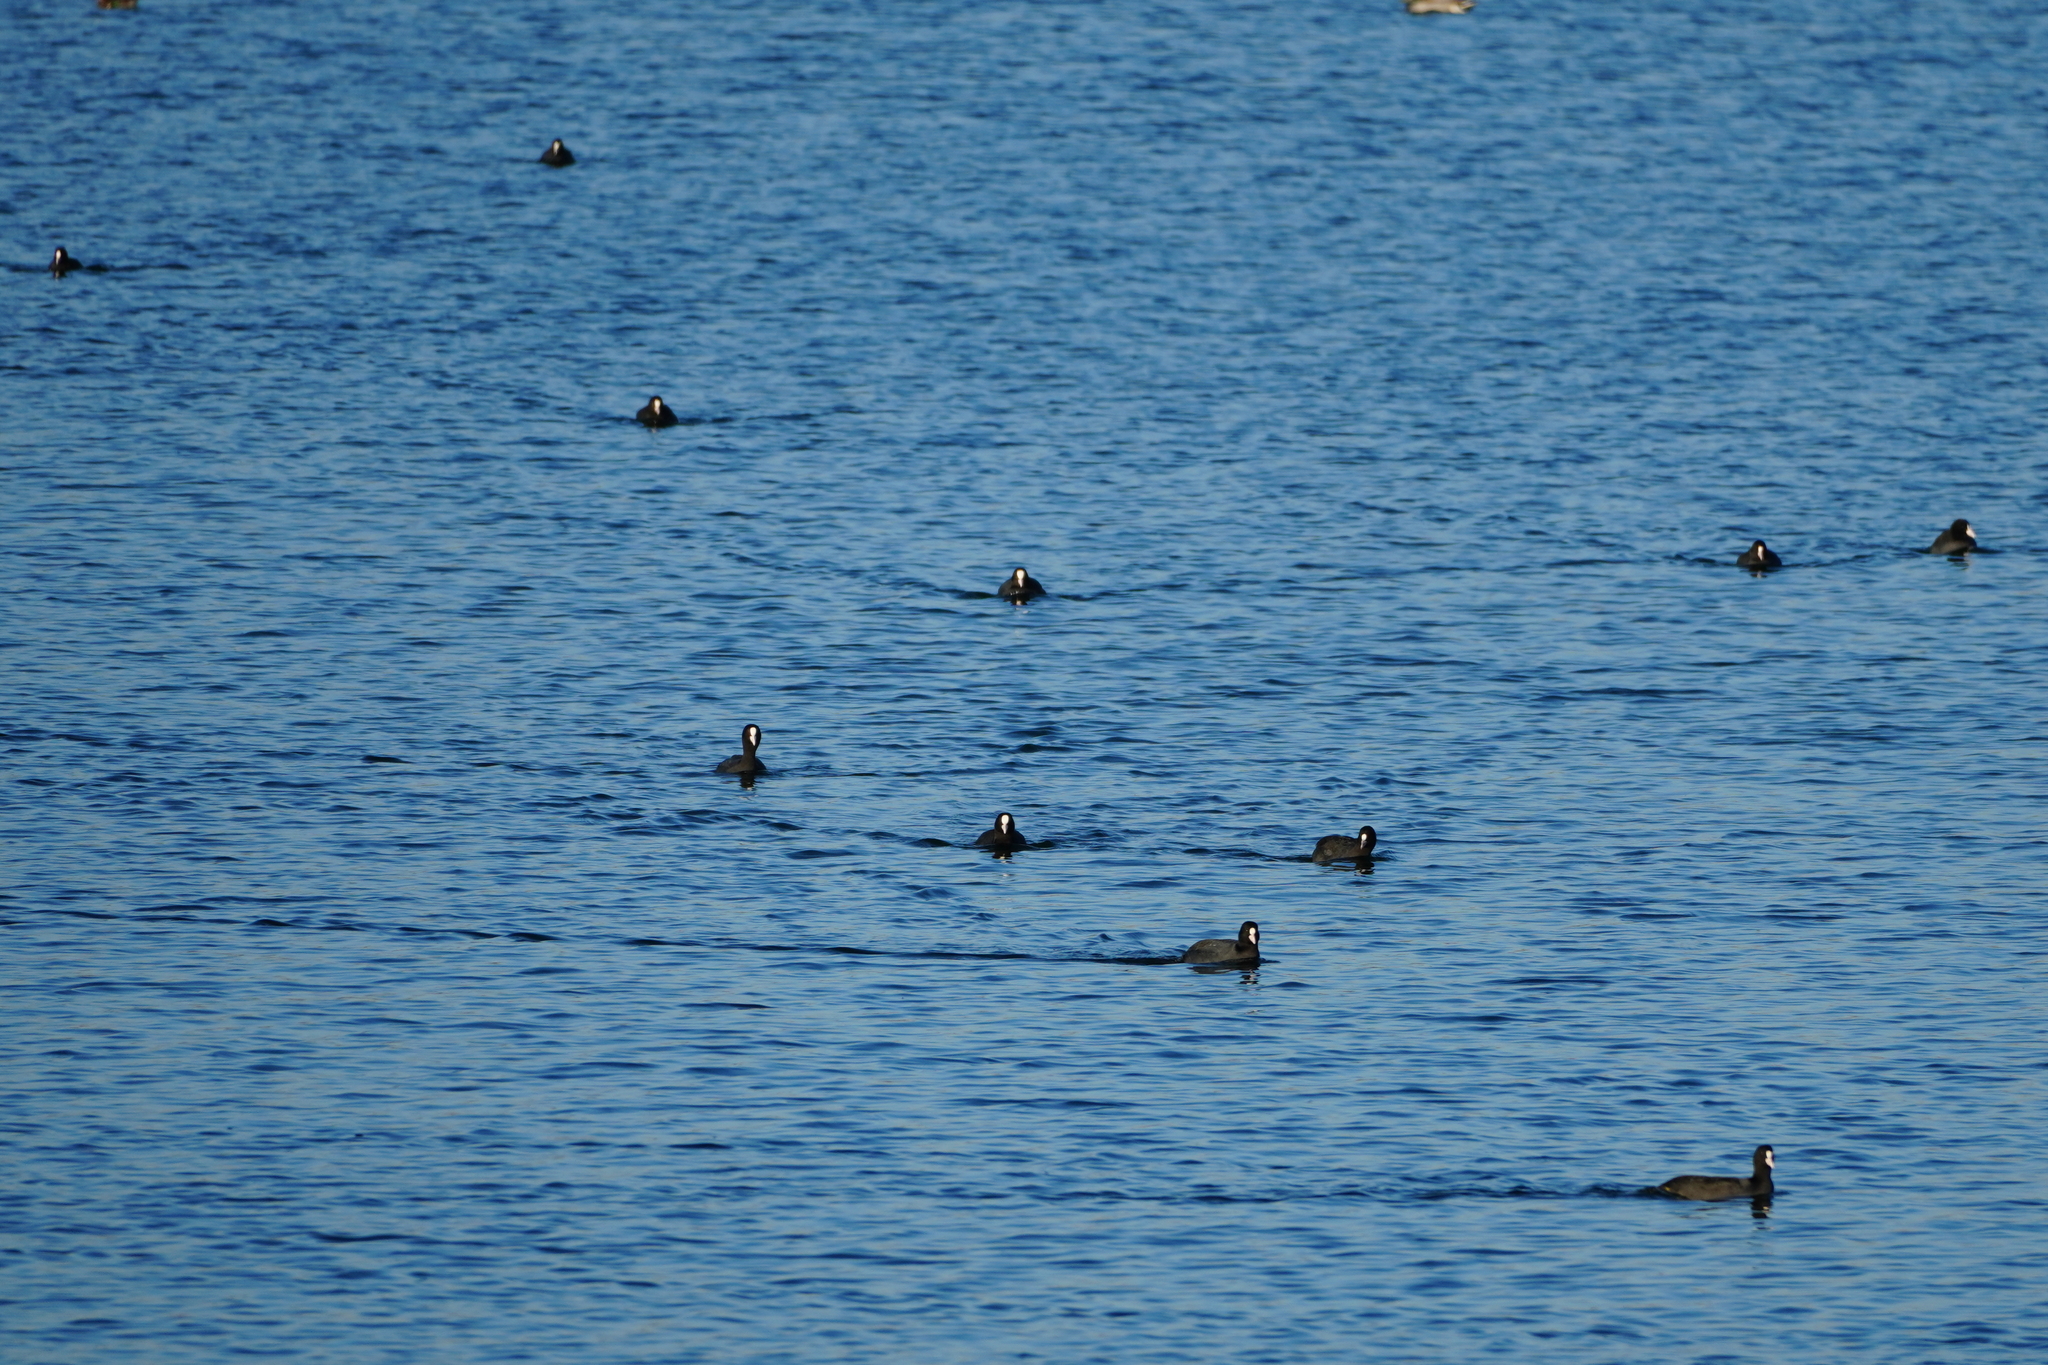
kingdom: Animalia
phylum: Chordata
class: Aves
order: Gruiformes
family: Rallidae
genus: Fulica
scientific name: Fulica atra
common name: Eurasian coot
